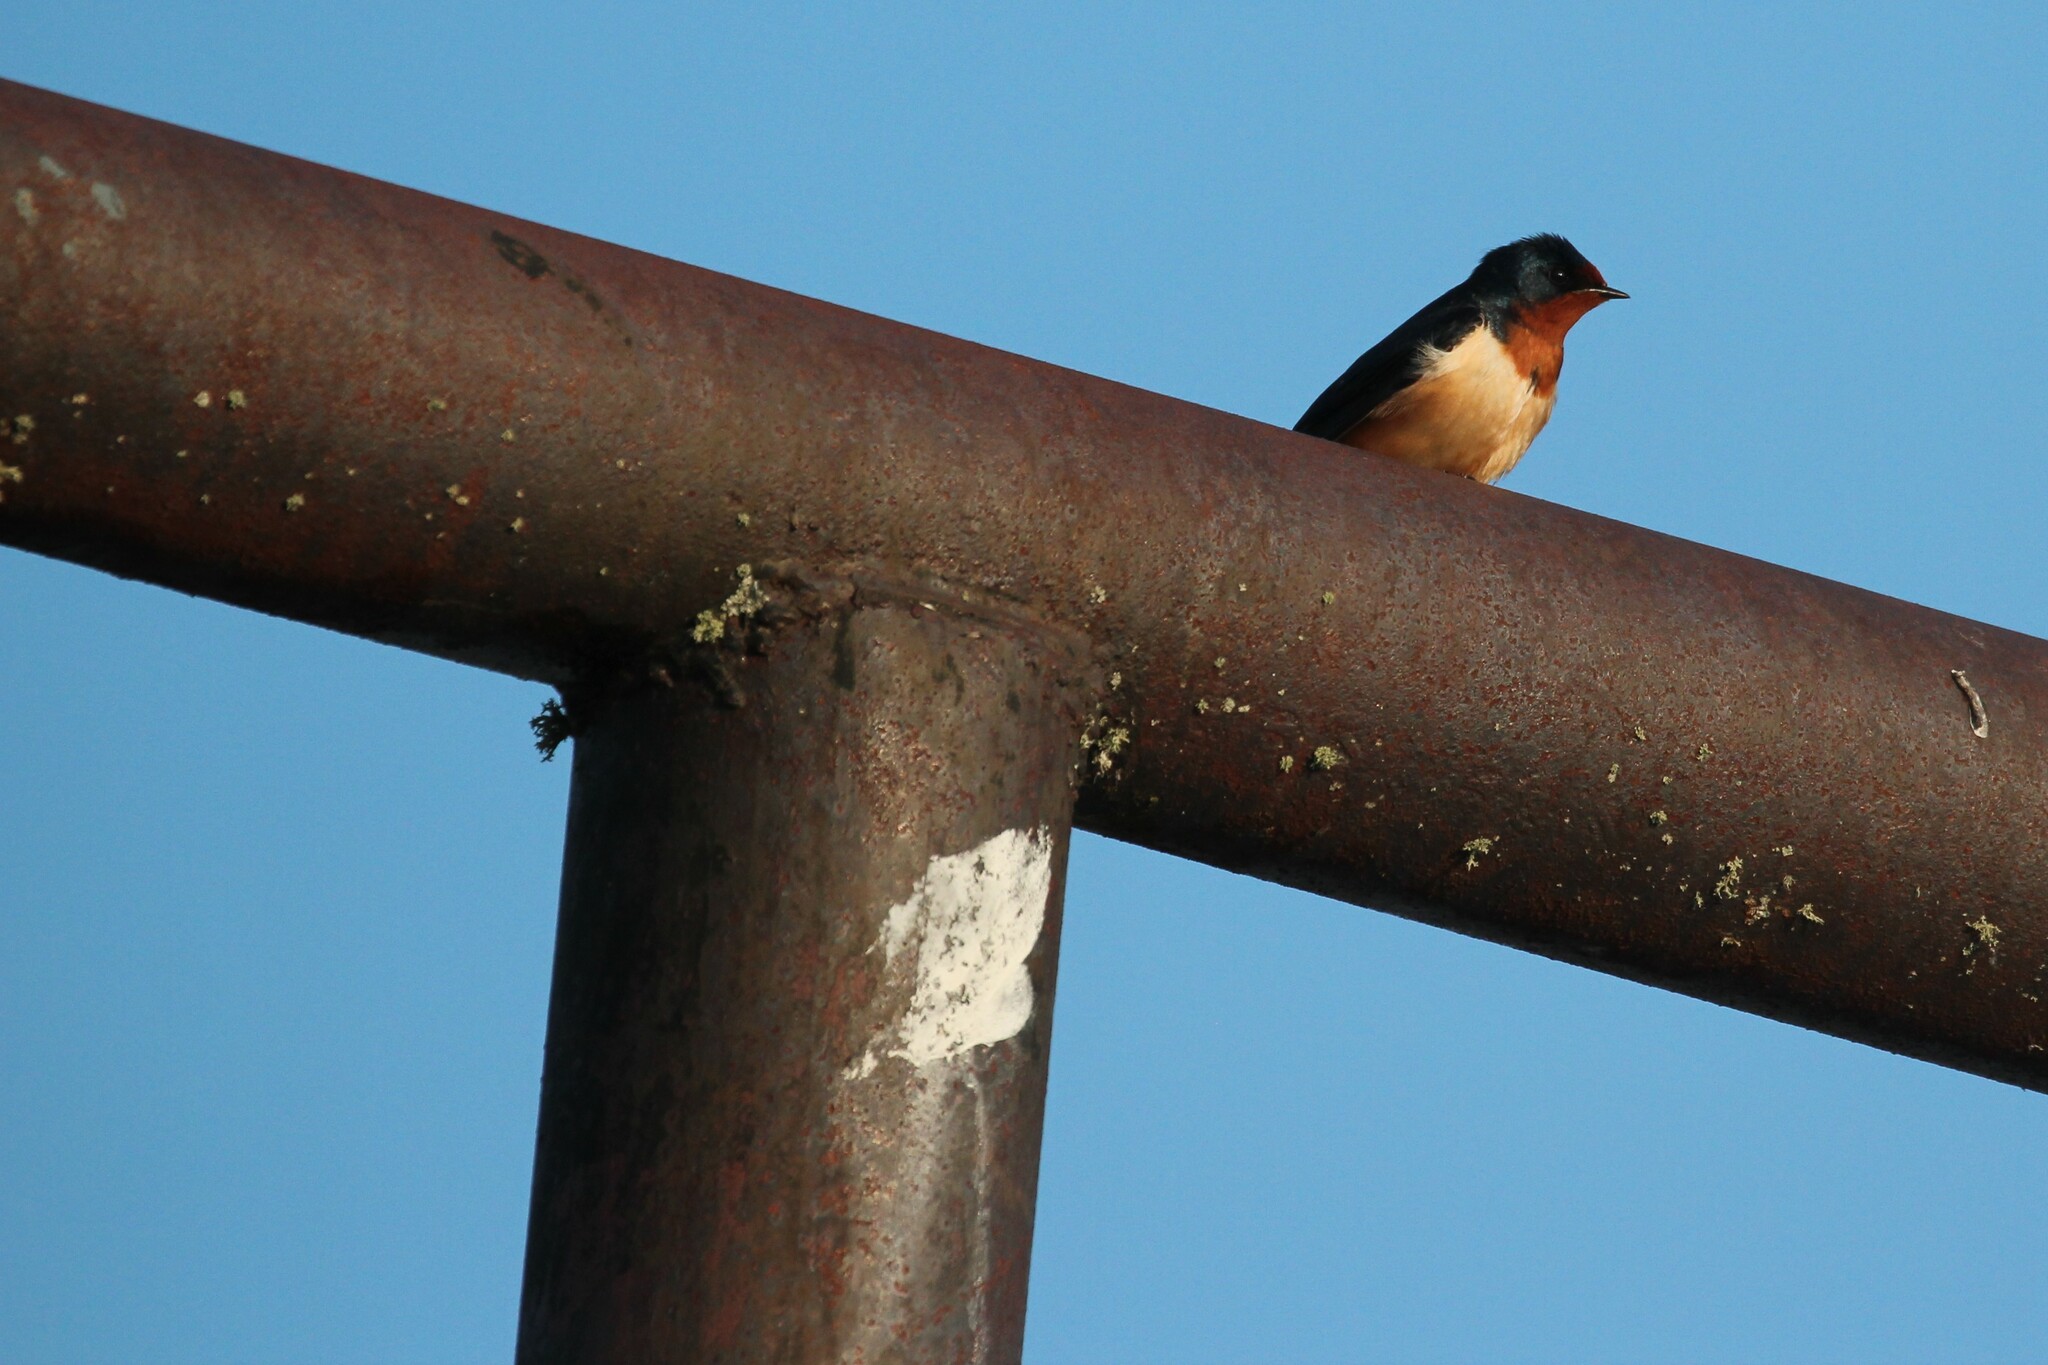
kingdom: Animalia
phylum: Chordata
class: Aves
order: Passeriformes
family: Hirundinidae
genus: Hirundo
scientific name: Hirundo rustica
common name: Barn swallow
